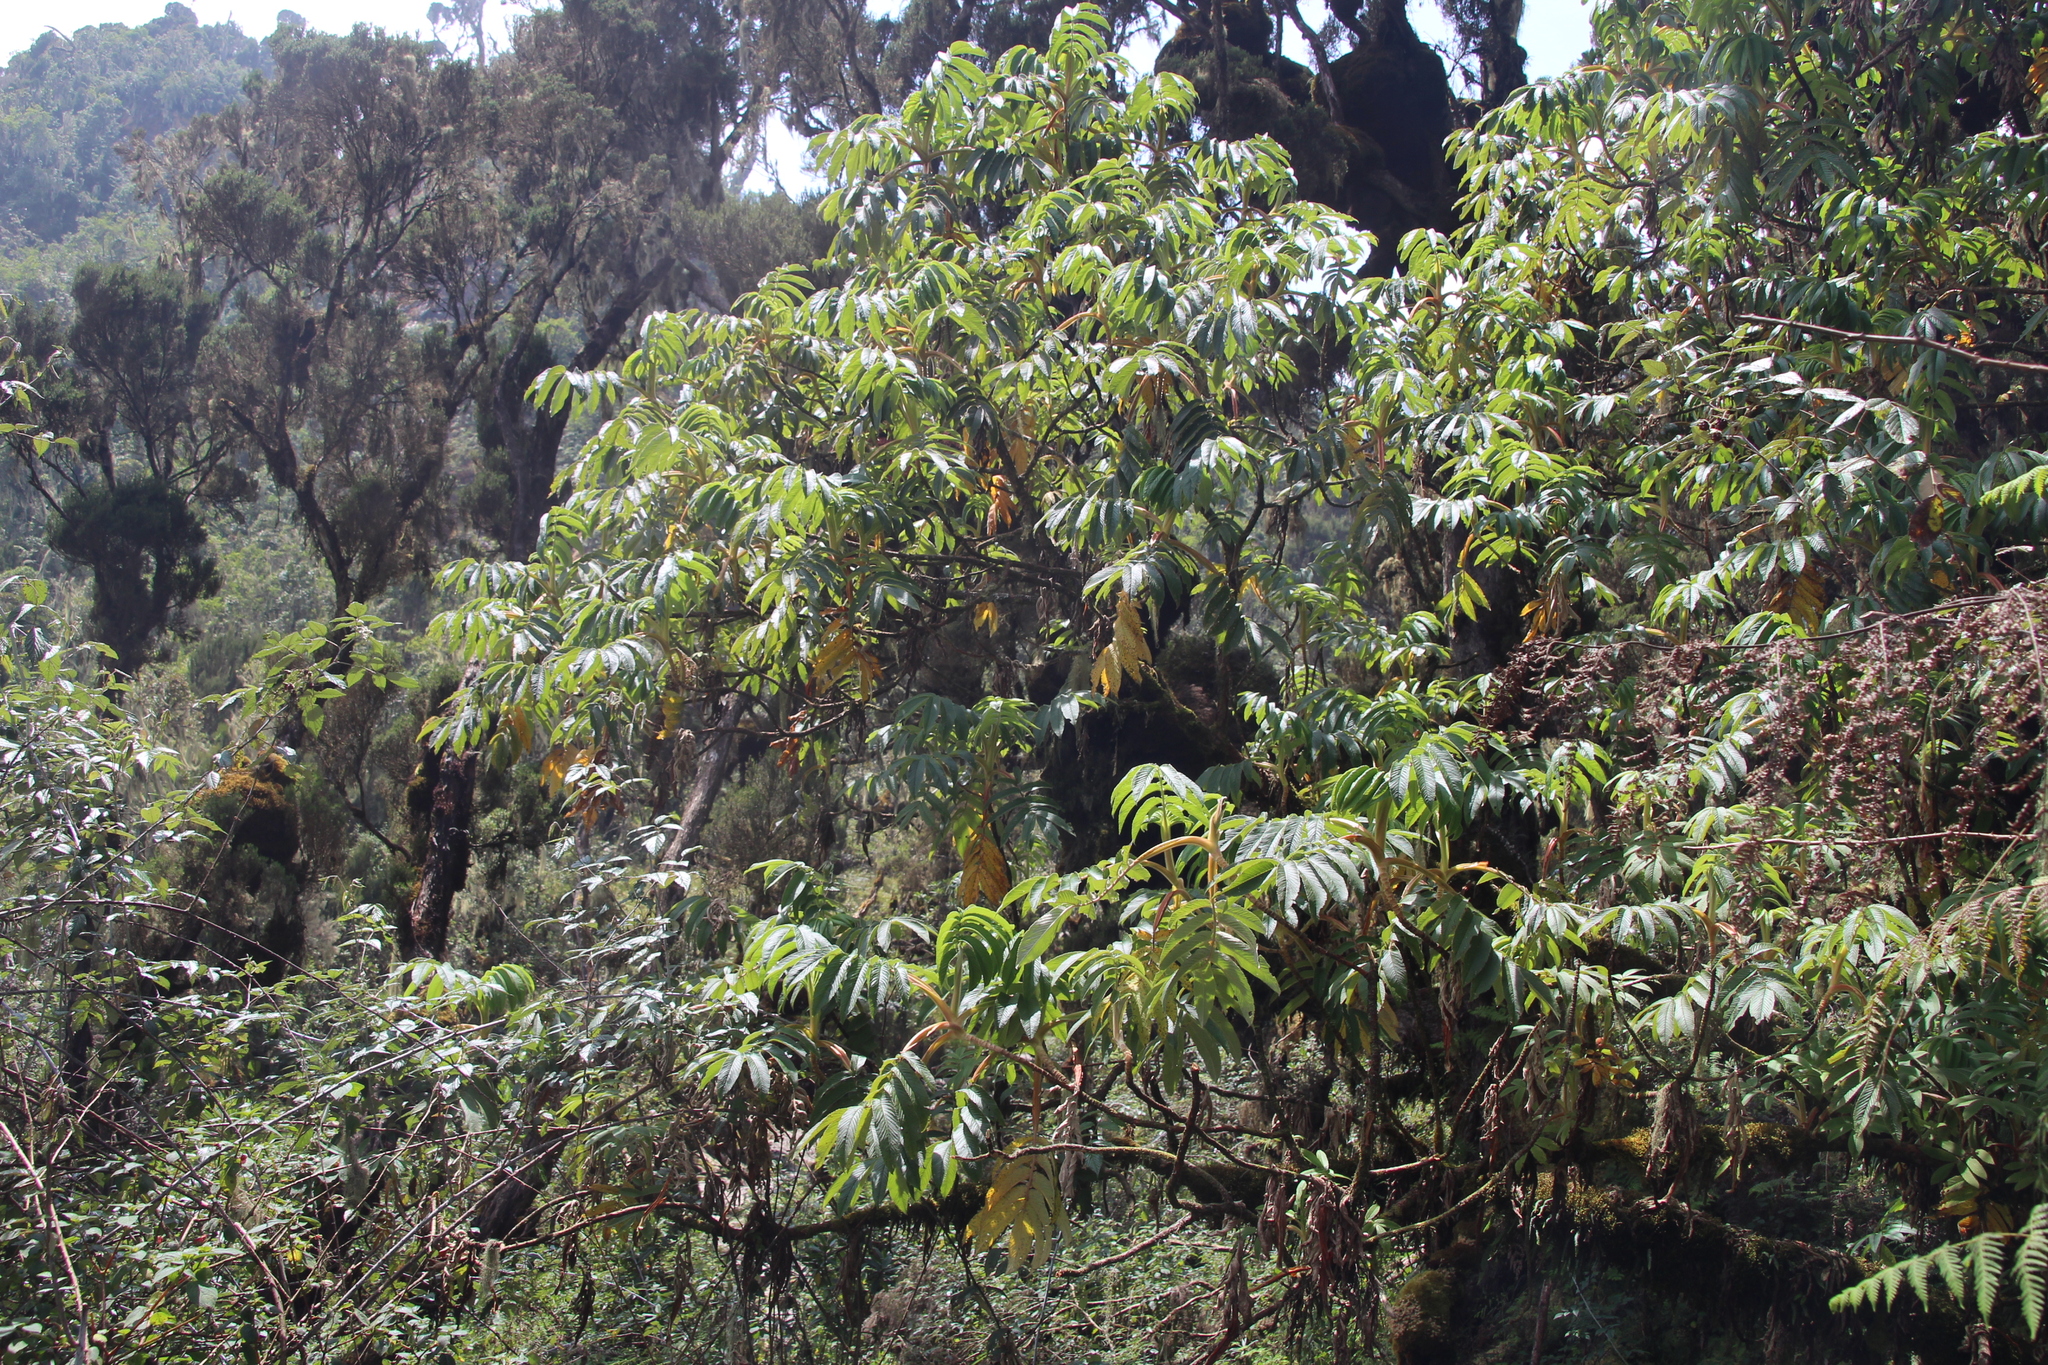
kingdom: Plantae
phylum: Tracheophyta
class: Magnoliopsida
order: Rosales
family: Rosaceae
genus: Hagenia
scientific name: Hagenia abyssinica
